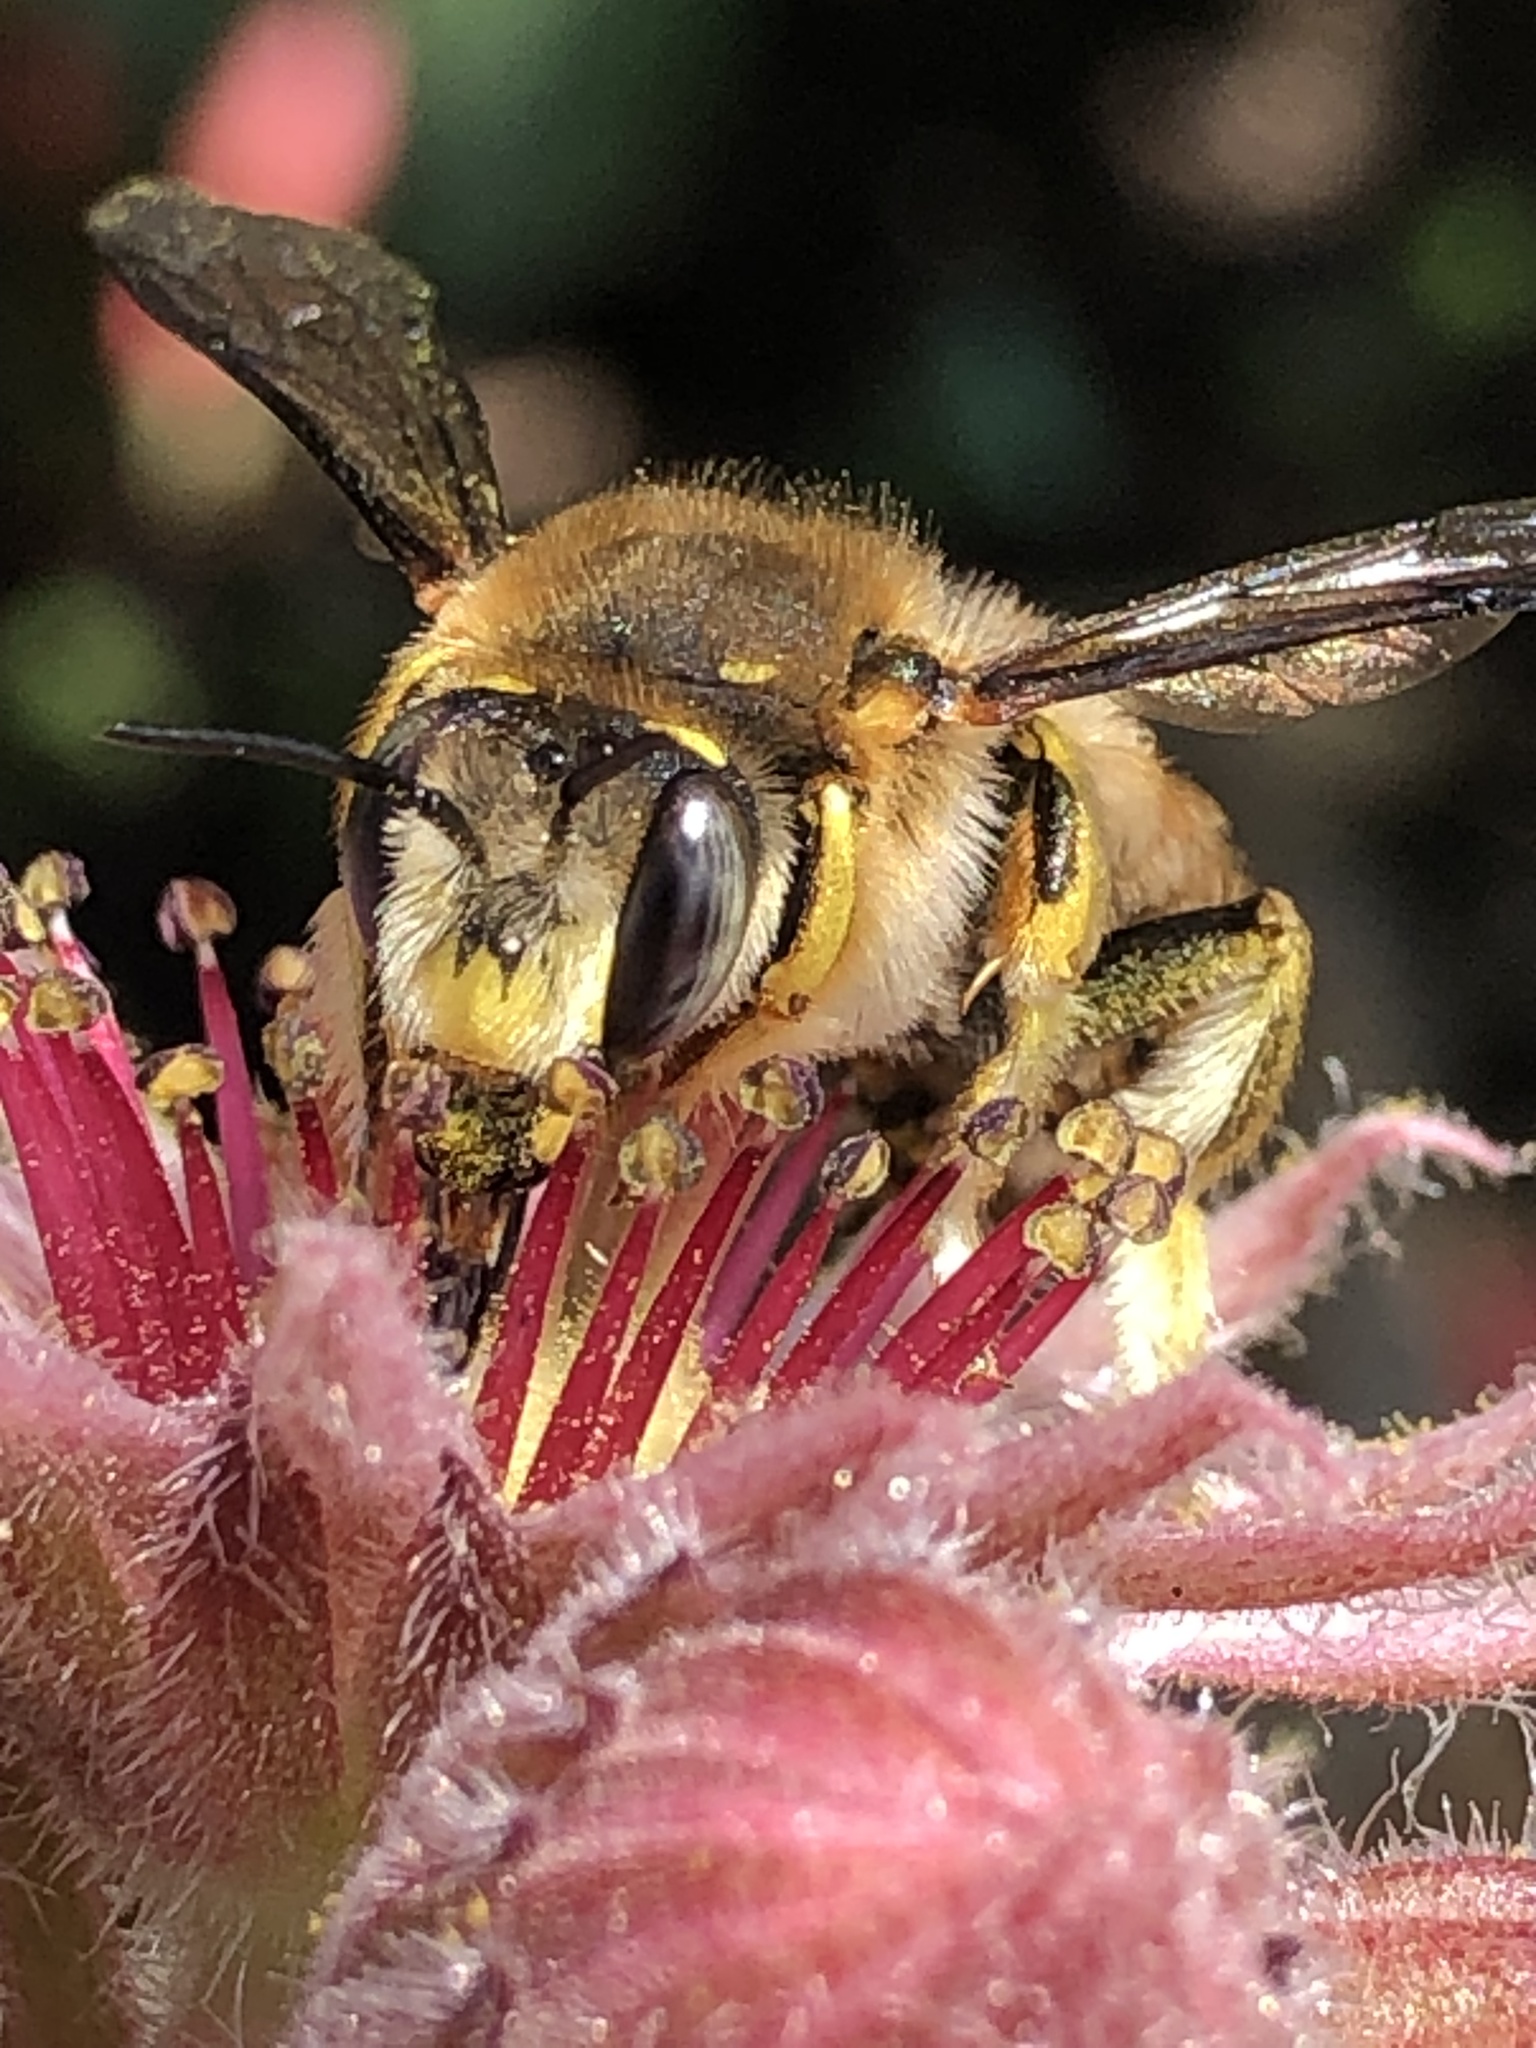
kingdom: Animalia
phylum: Arthropoda
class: Insecta
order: Hymenoptera
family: Megachilidae
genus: Anthidium
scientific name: Anthidium manicatum
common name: Wool carder bee
